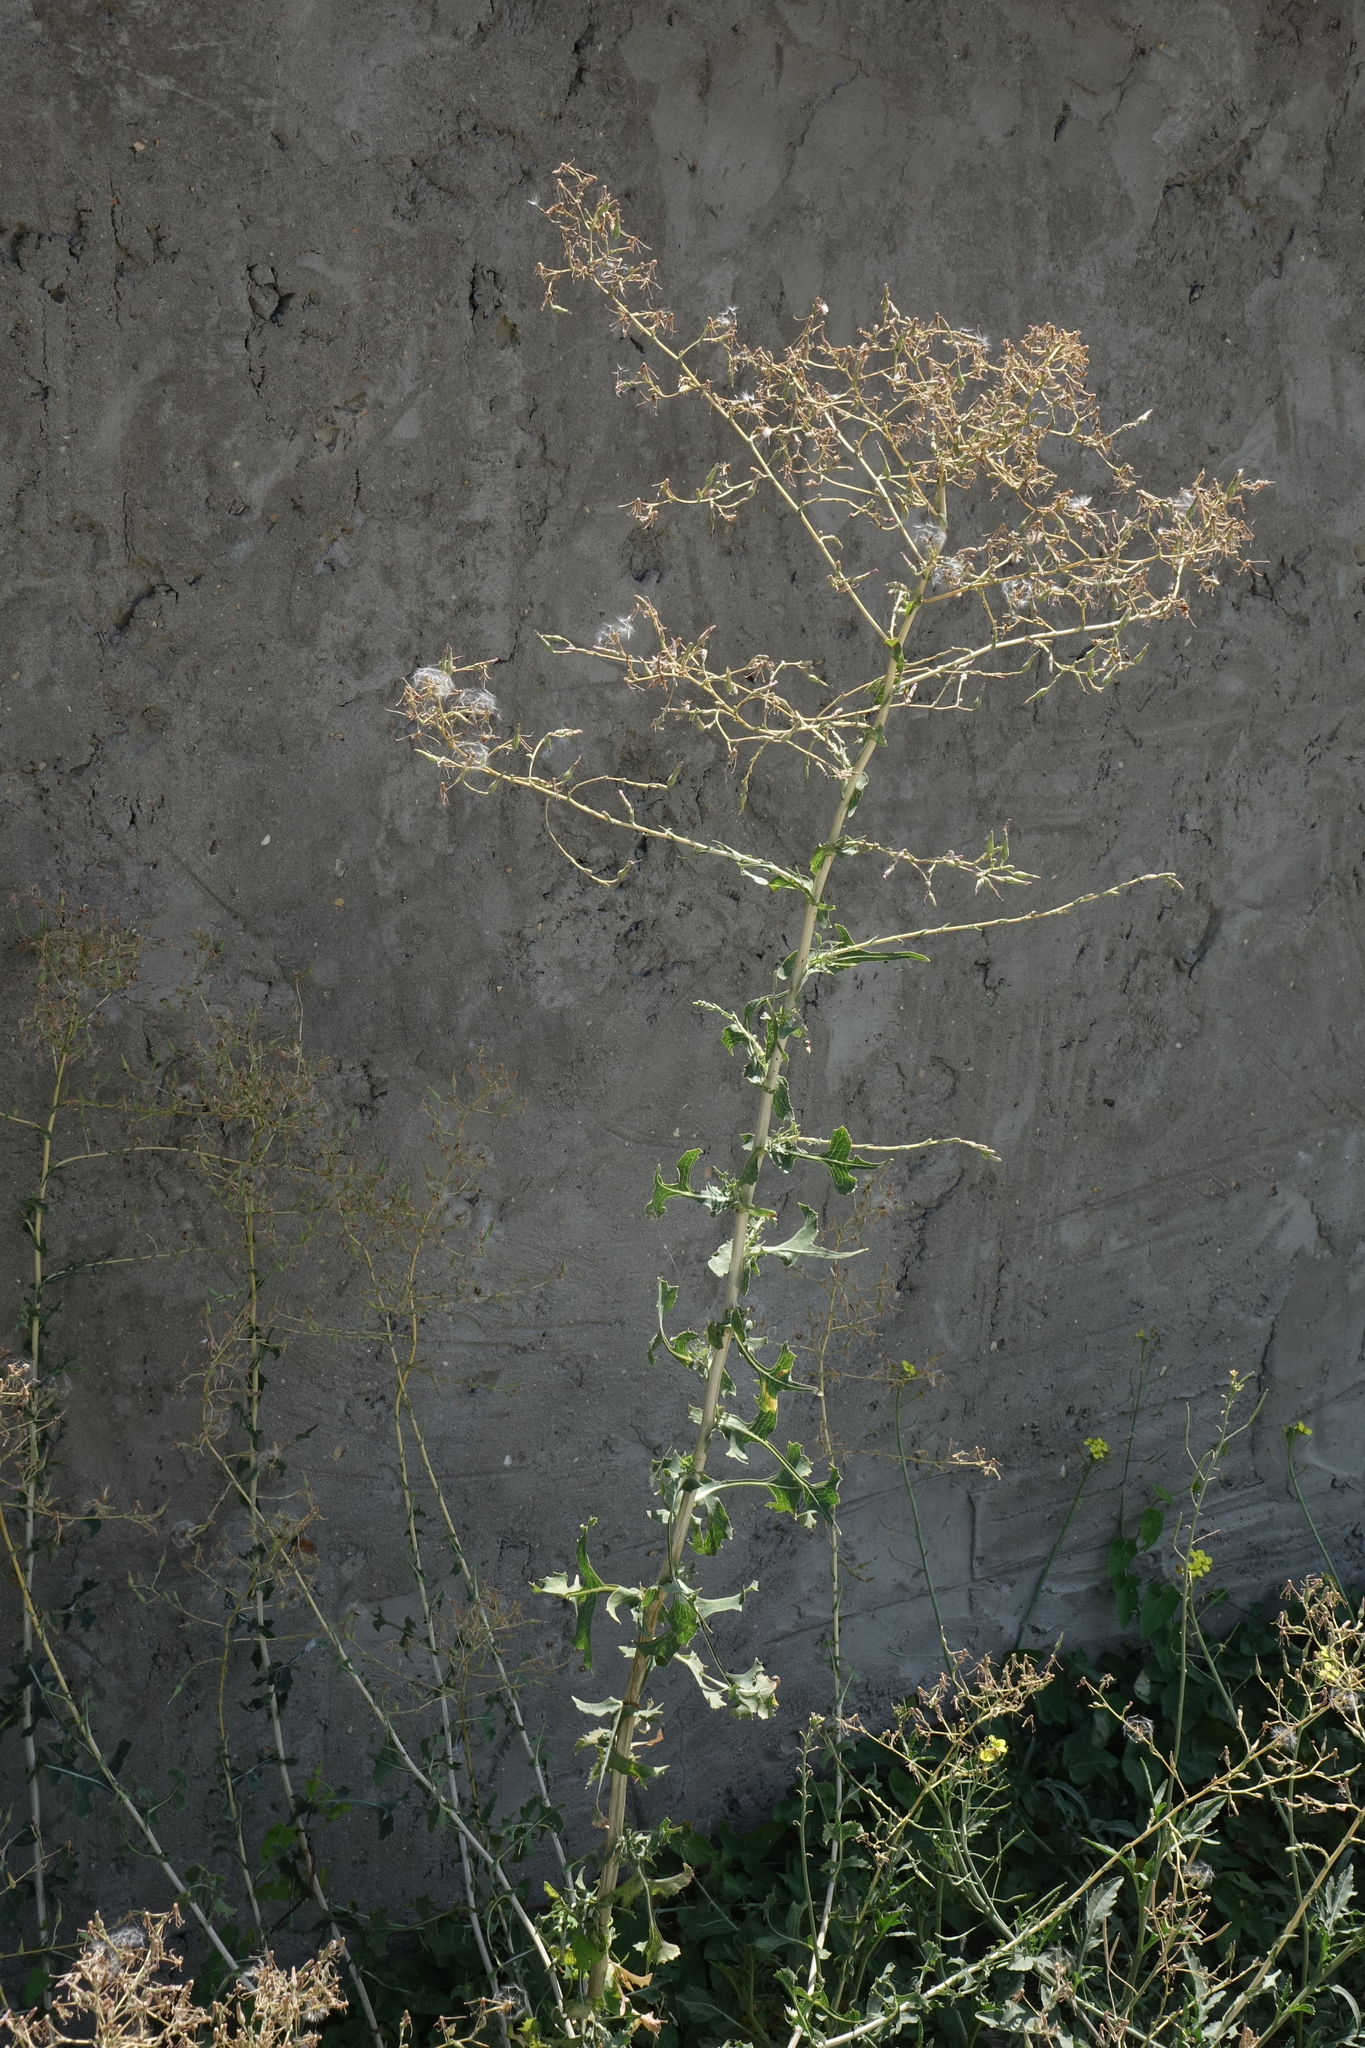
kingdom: Plantae
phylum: Tracheophyta
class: Magnoliopsida
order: Asterales
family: Asteraceae
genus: Lactuca
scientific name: Lactuca serriola
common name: Prickly lettuce
